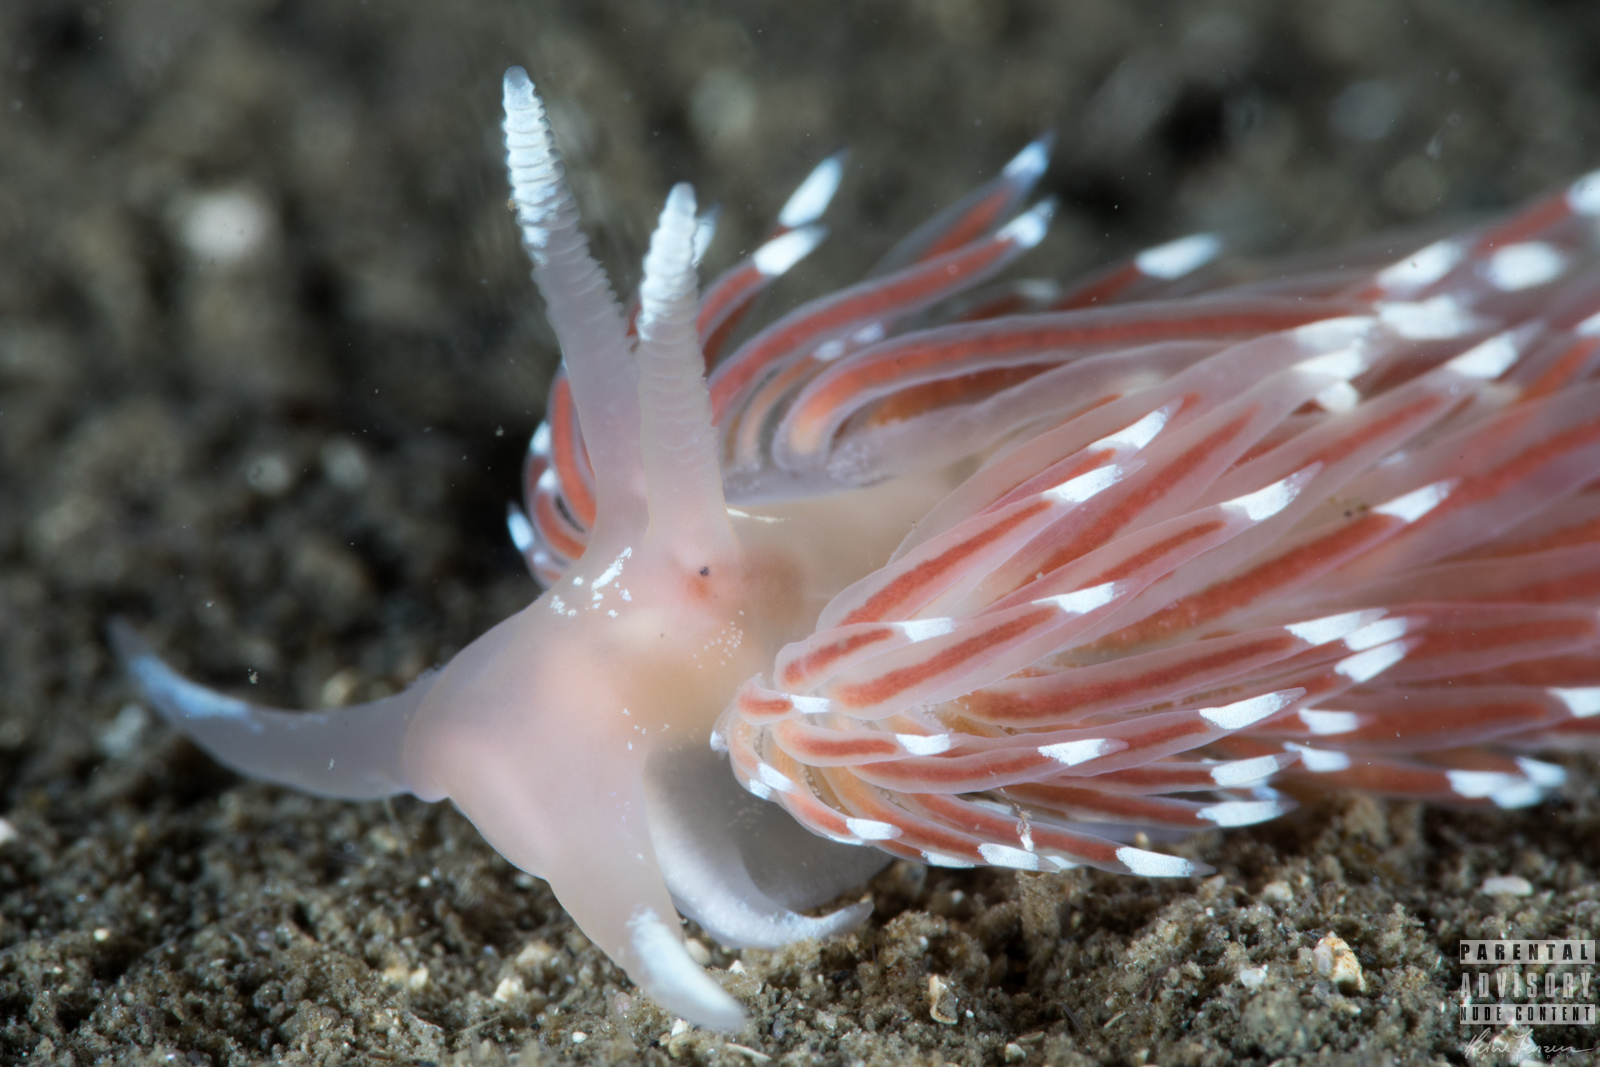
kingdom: Animalia
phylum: Mollusca
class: Gastropoda
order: Nudibranchia
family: Facelinidae
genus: Facelina
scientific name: Facelina bostoniensis
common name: Boston facelina
